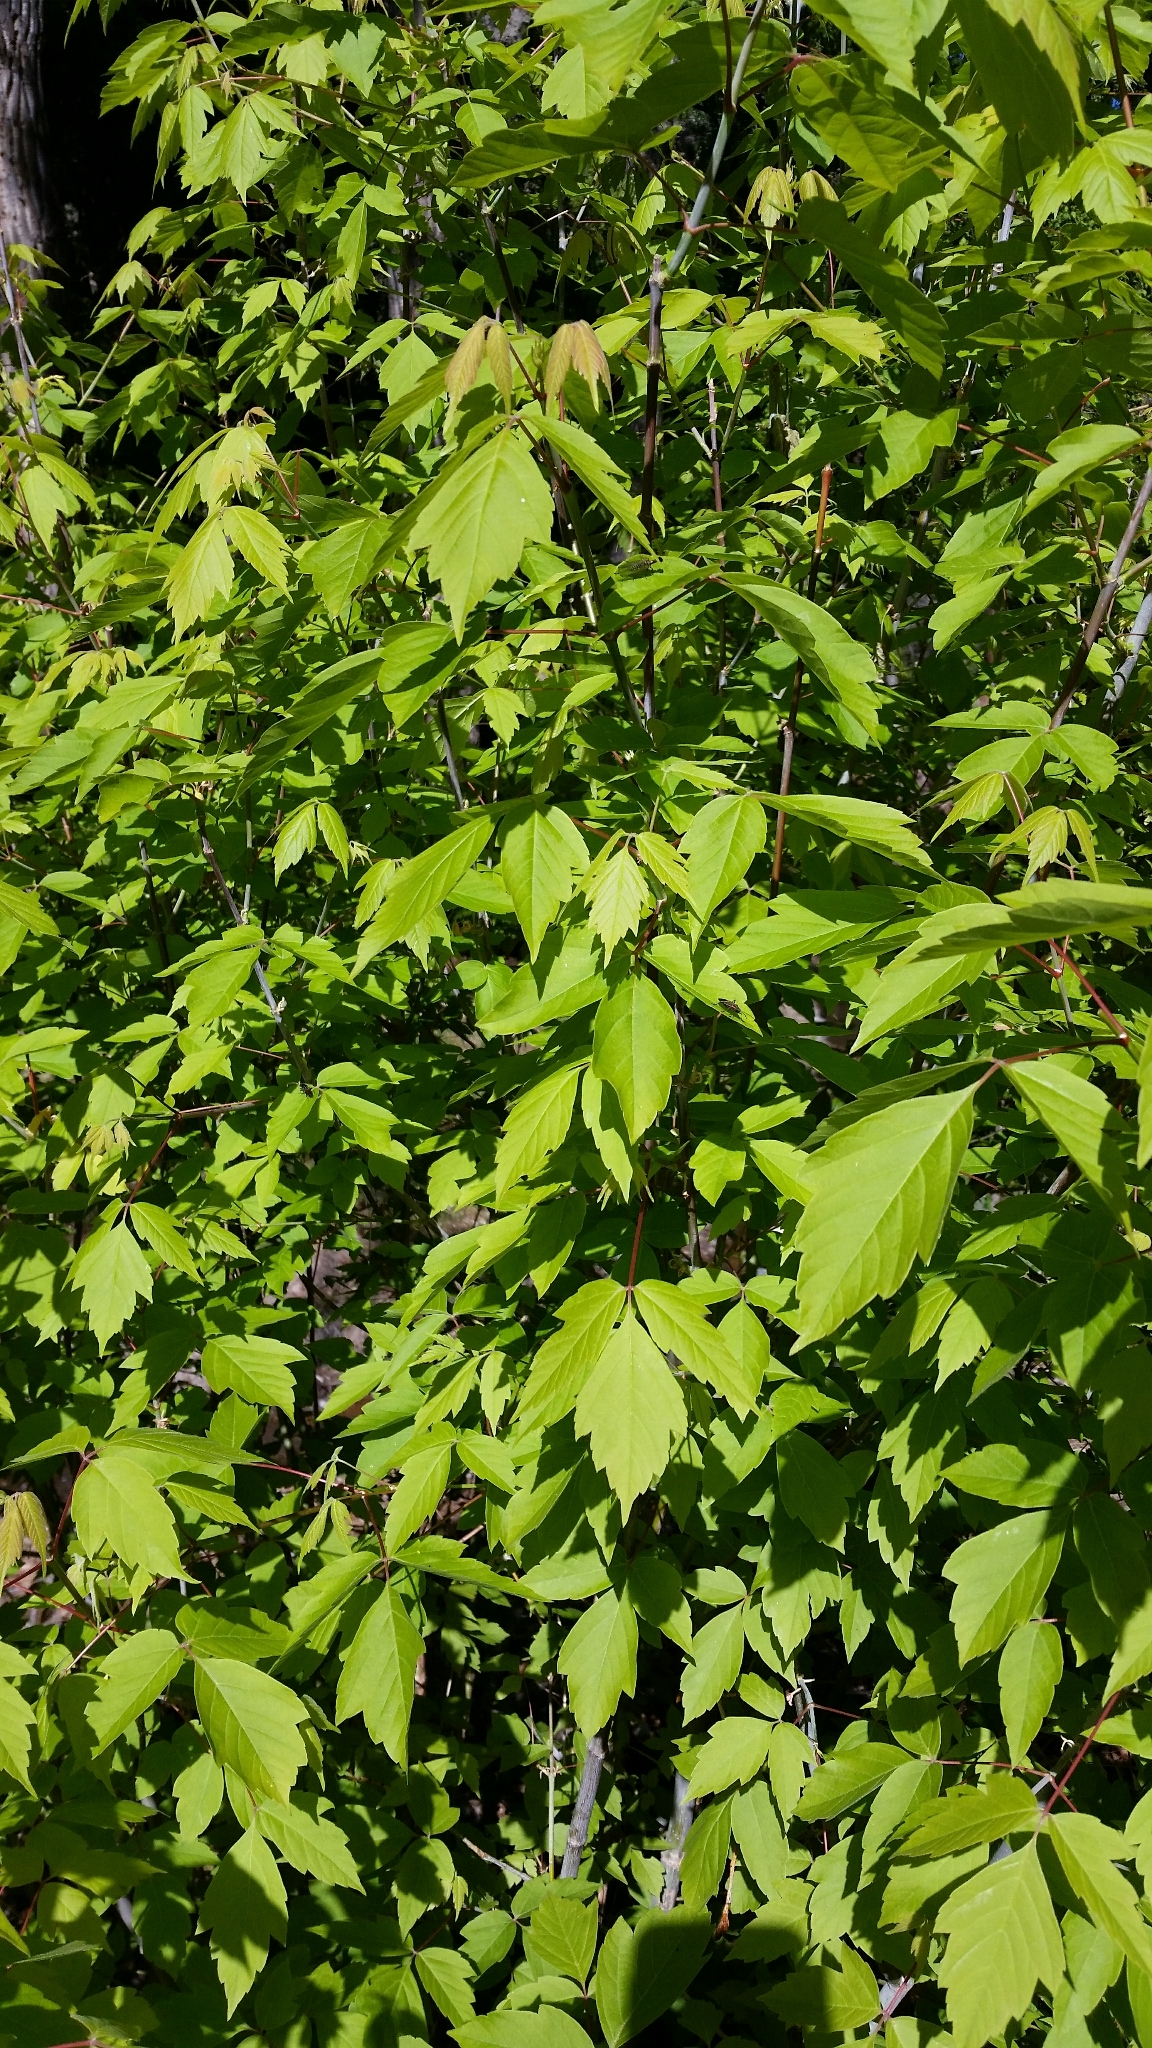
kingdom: Plantae
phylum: Tracheophyta
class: Magnoliopsida
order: Sapindales
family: Sapindaceae
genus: Acer
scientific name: Acer negundo
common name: Ashleaf maple
